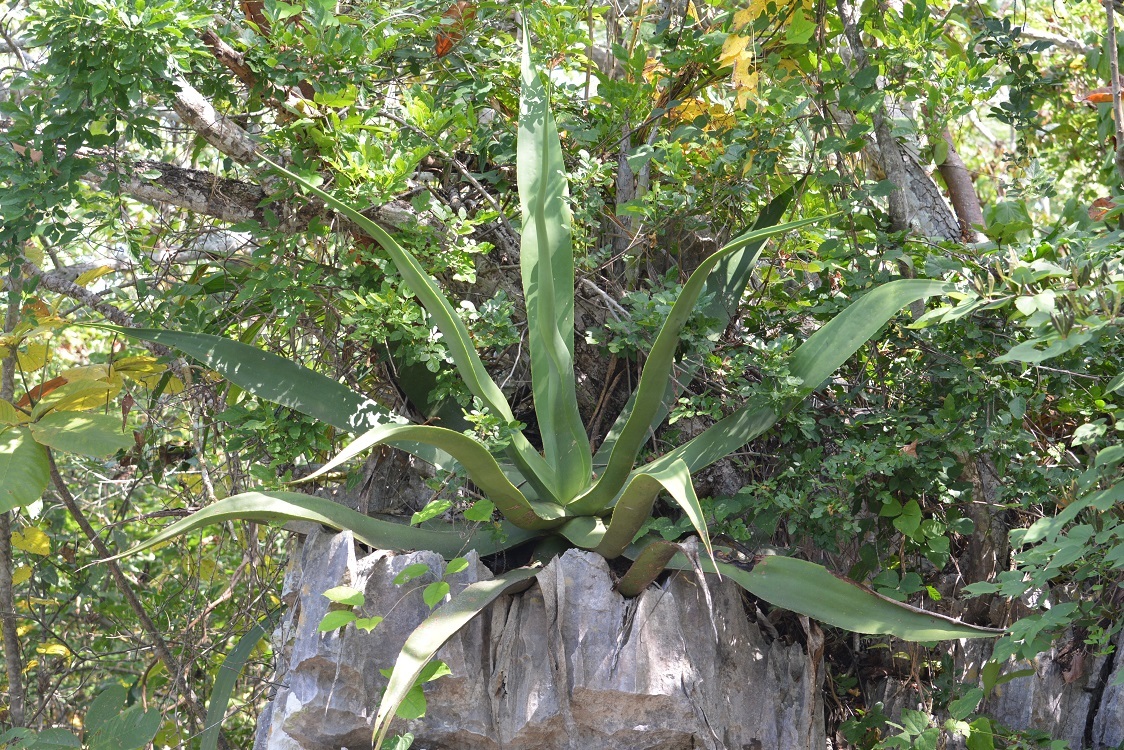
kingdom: Plantae
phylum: Tracheophyta
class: Liliopsida
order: Asparagales
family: Asparagaceae
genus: Agave
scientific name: Agave kewensis
